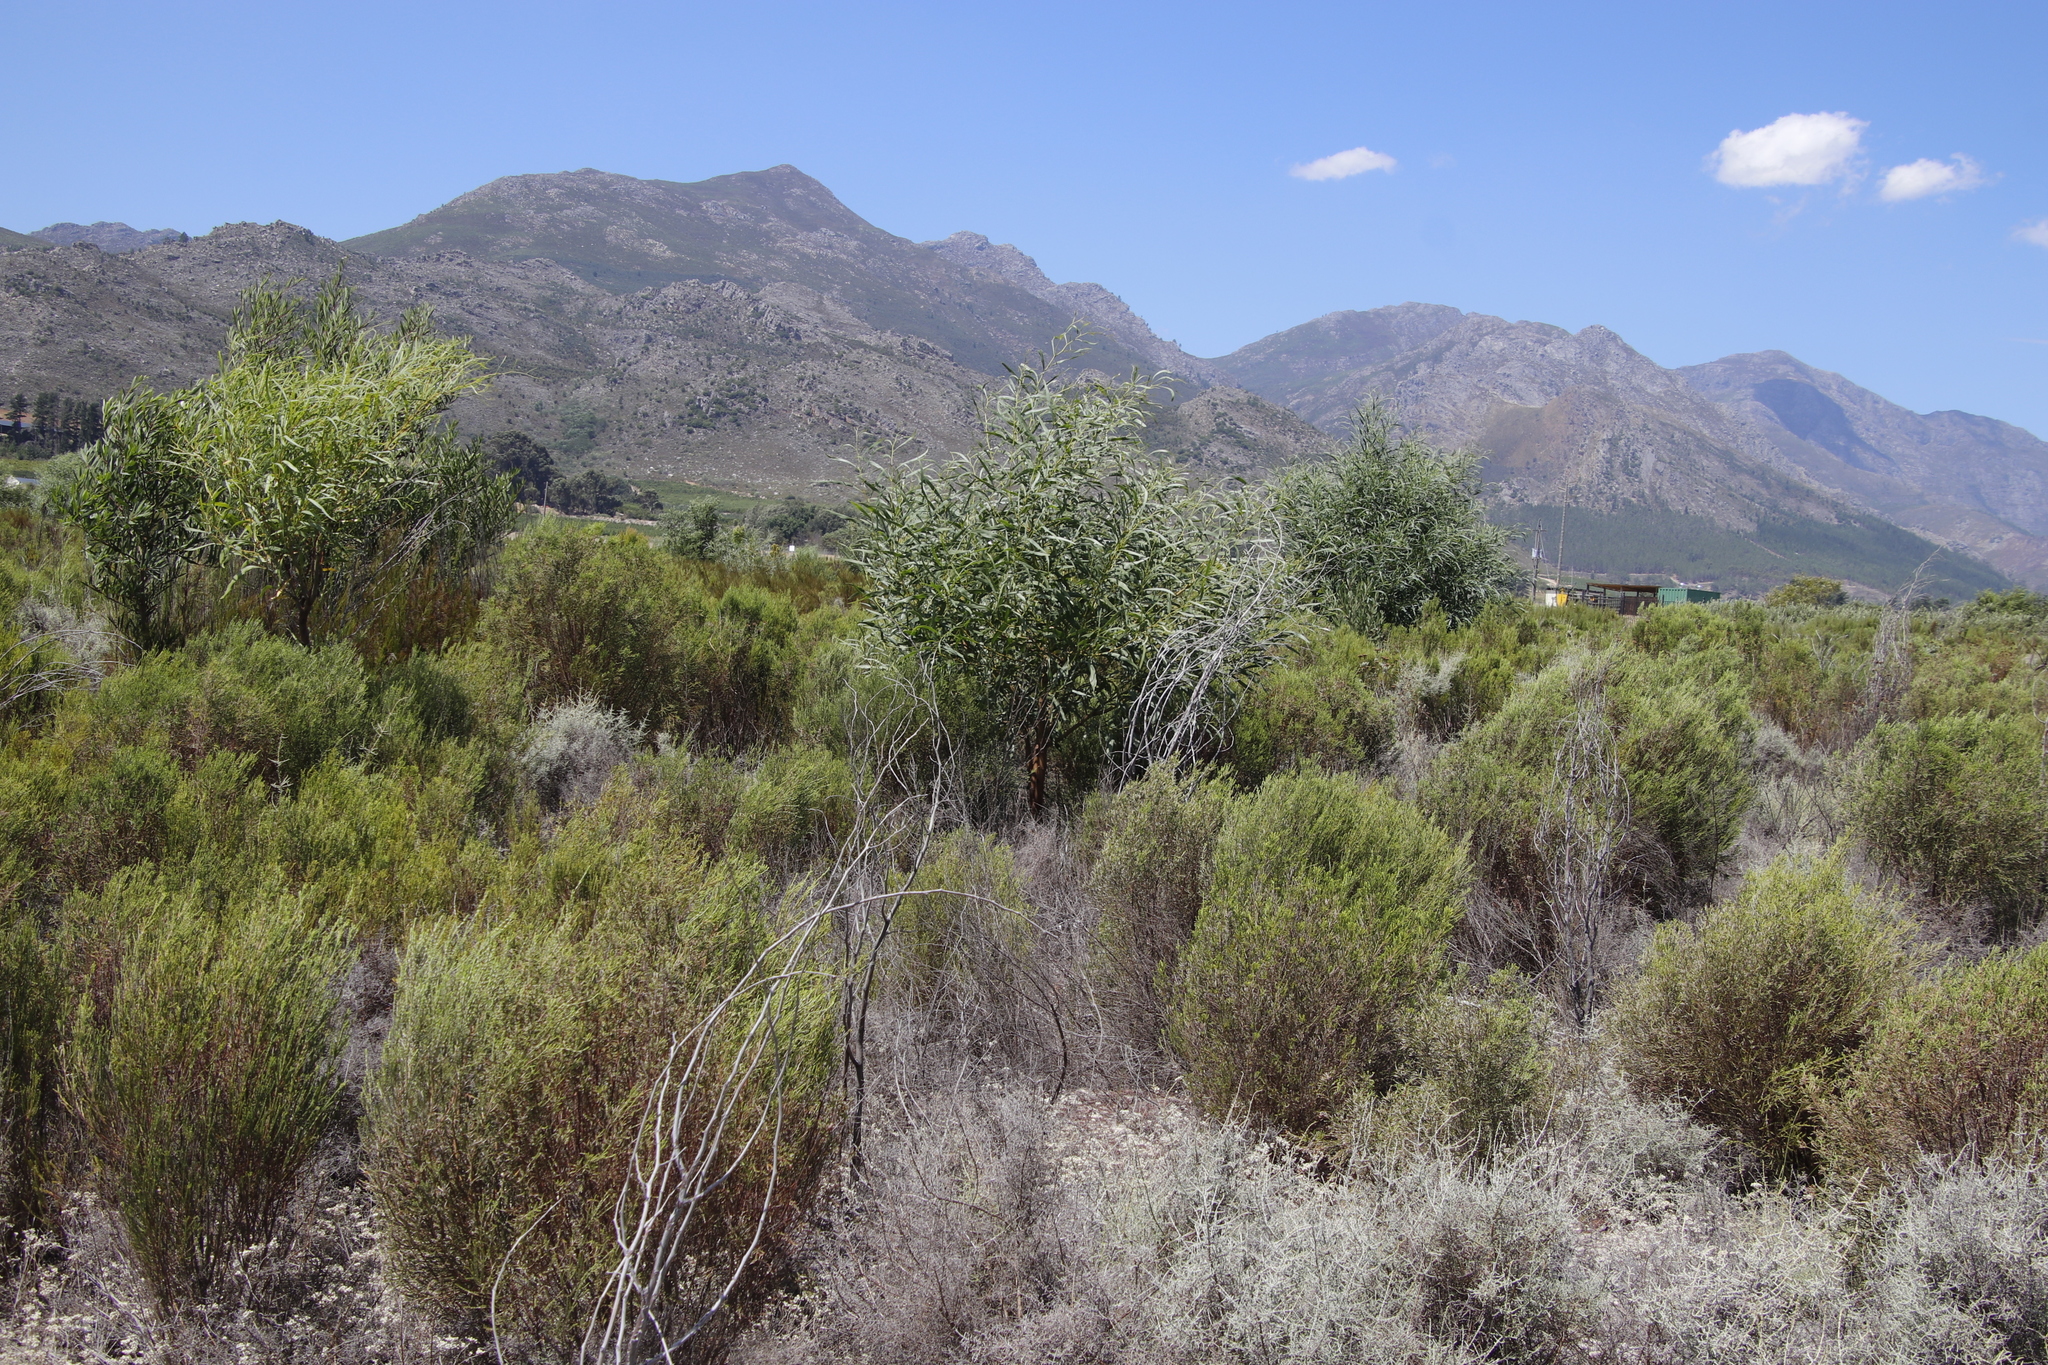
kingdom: Plantae
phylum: Tracheophyta
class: Magnoliopsida
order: Fabales
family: Fabaceae
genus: Acacia
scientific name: Acacia saligna
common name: Orange wattle
